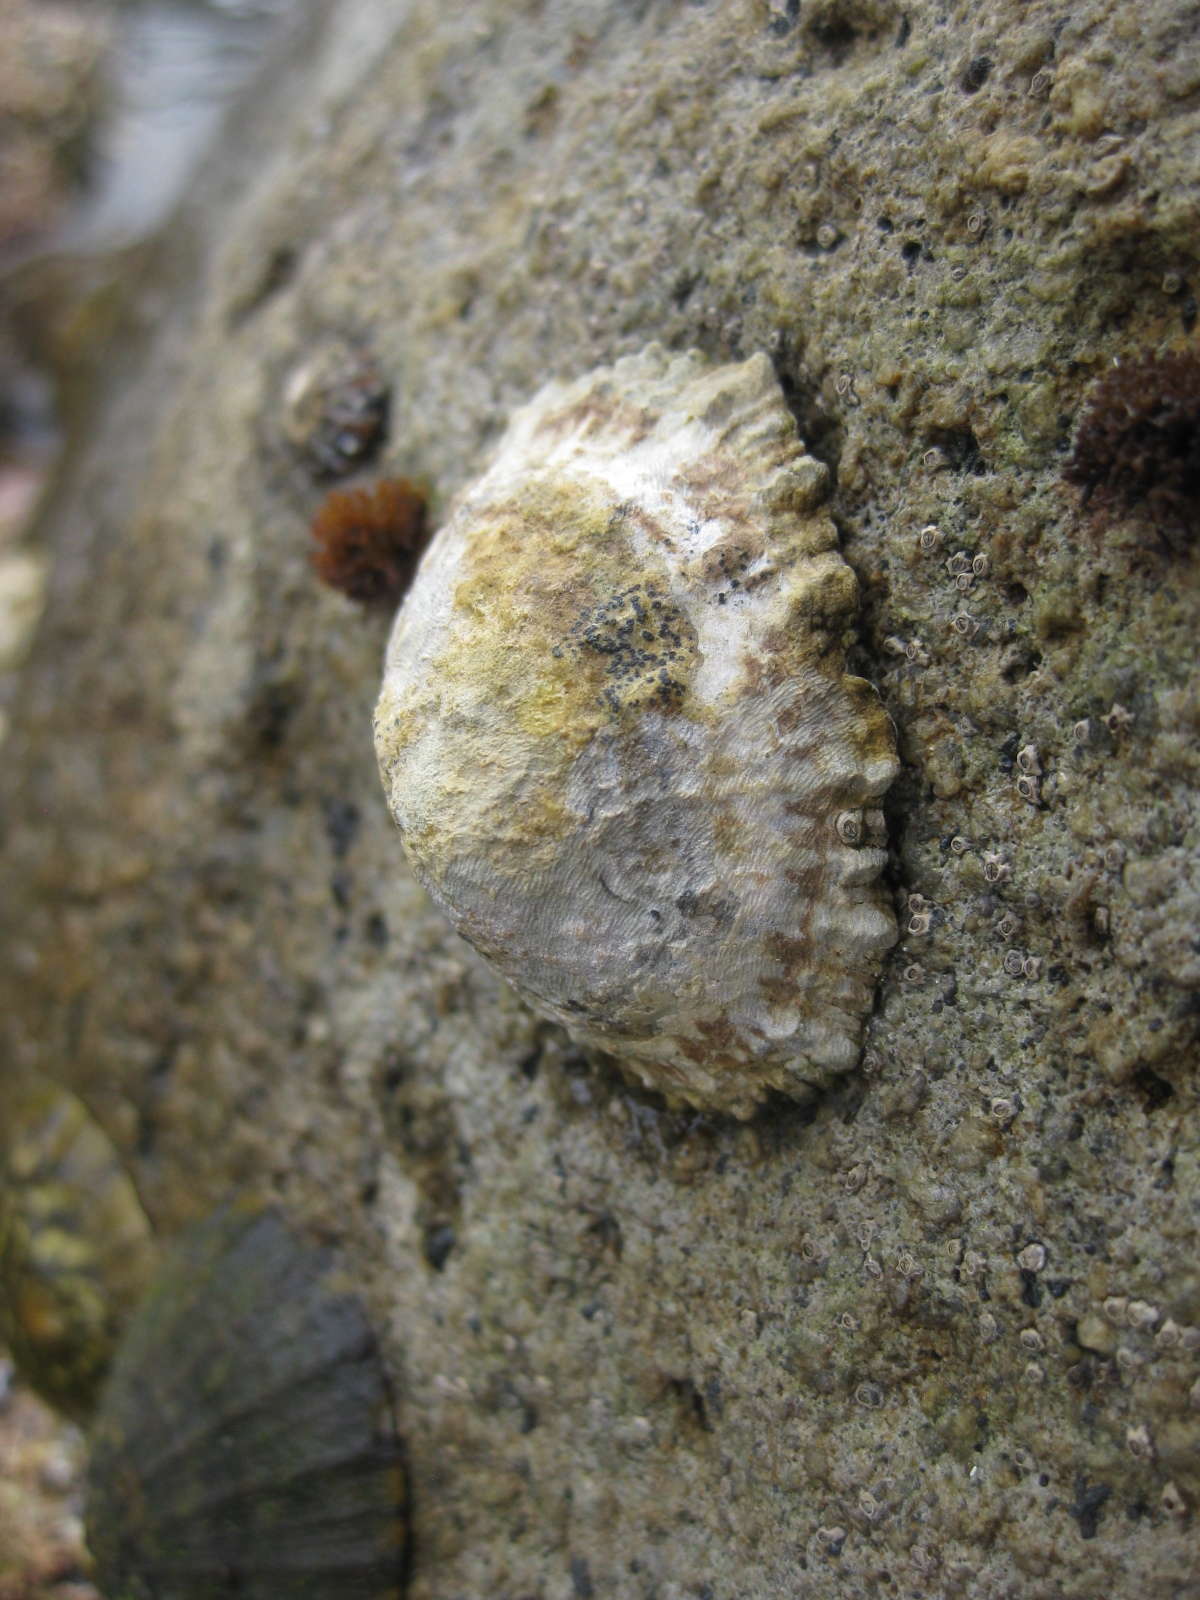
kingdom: Animalia
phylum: Mollusca
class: Gastropoda
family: Nacellidae
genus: Cellana
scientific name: Cellana ornata
